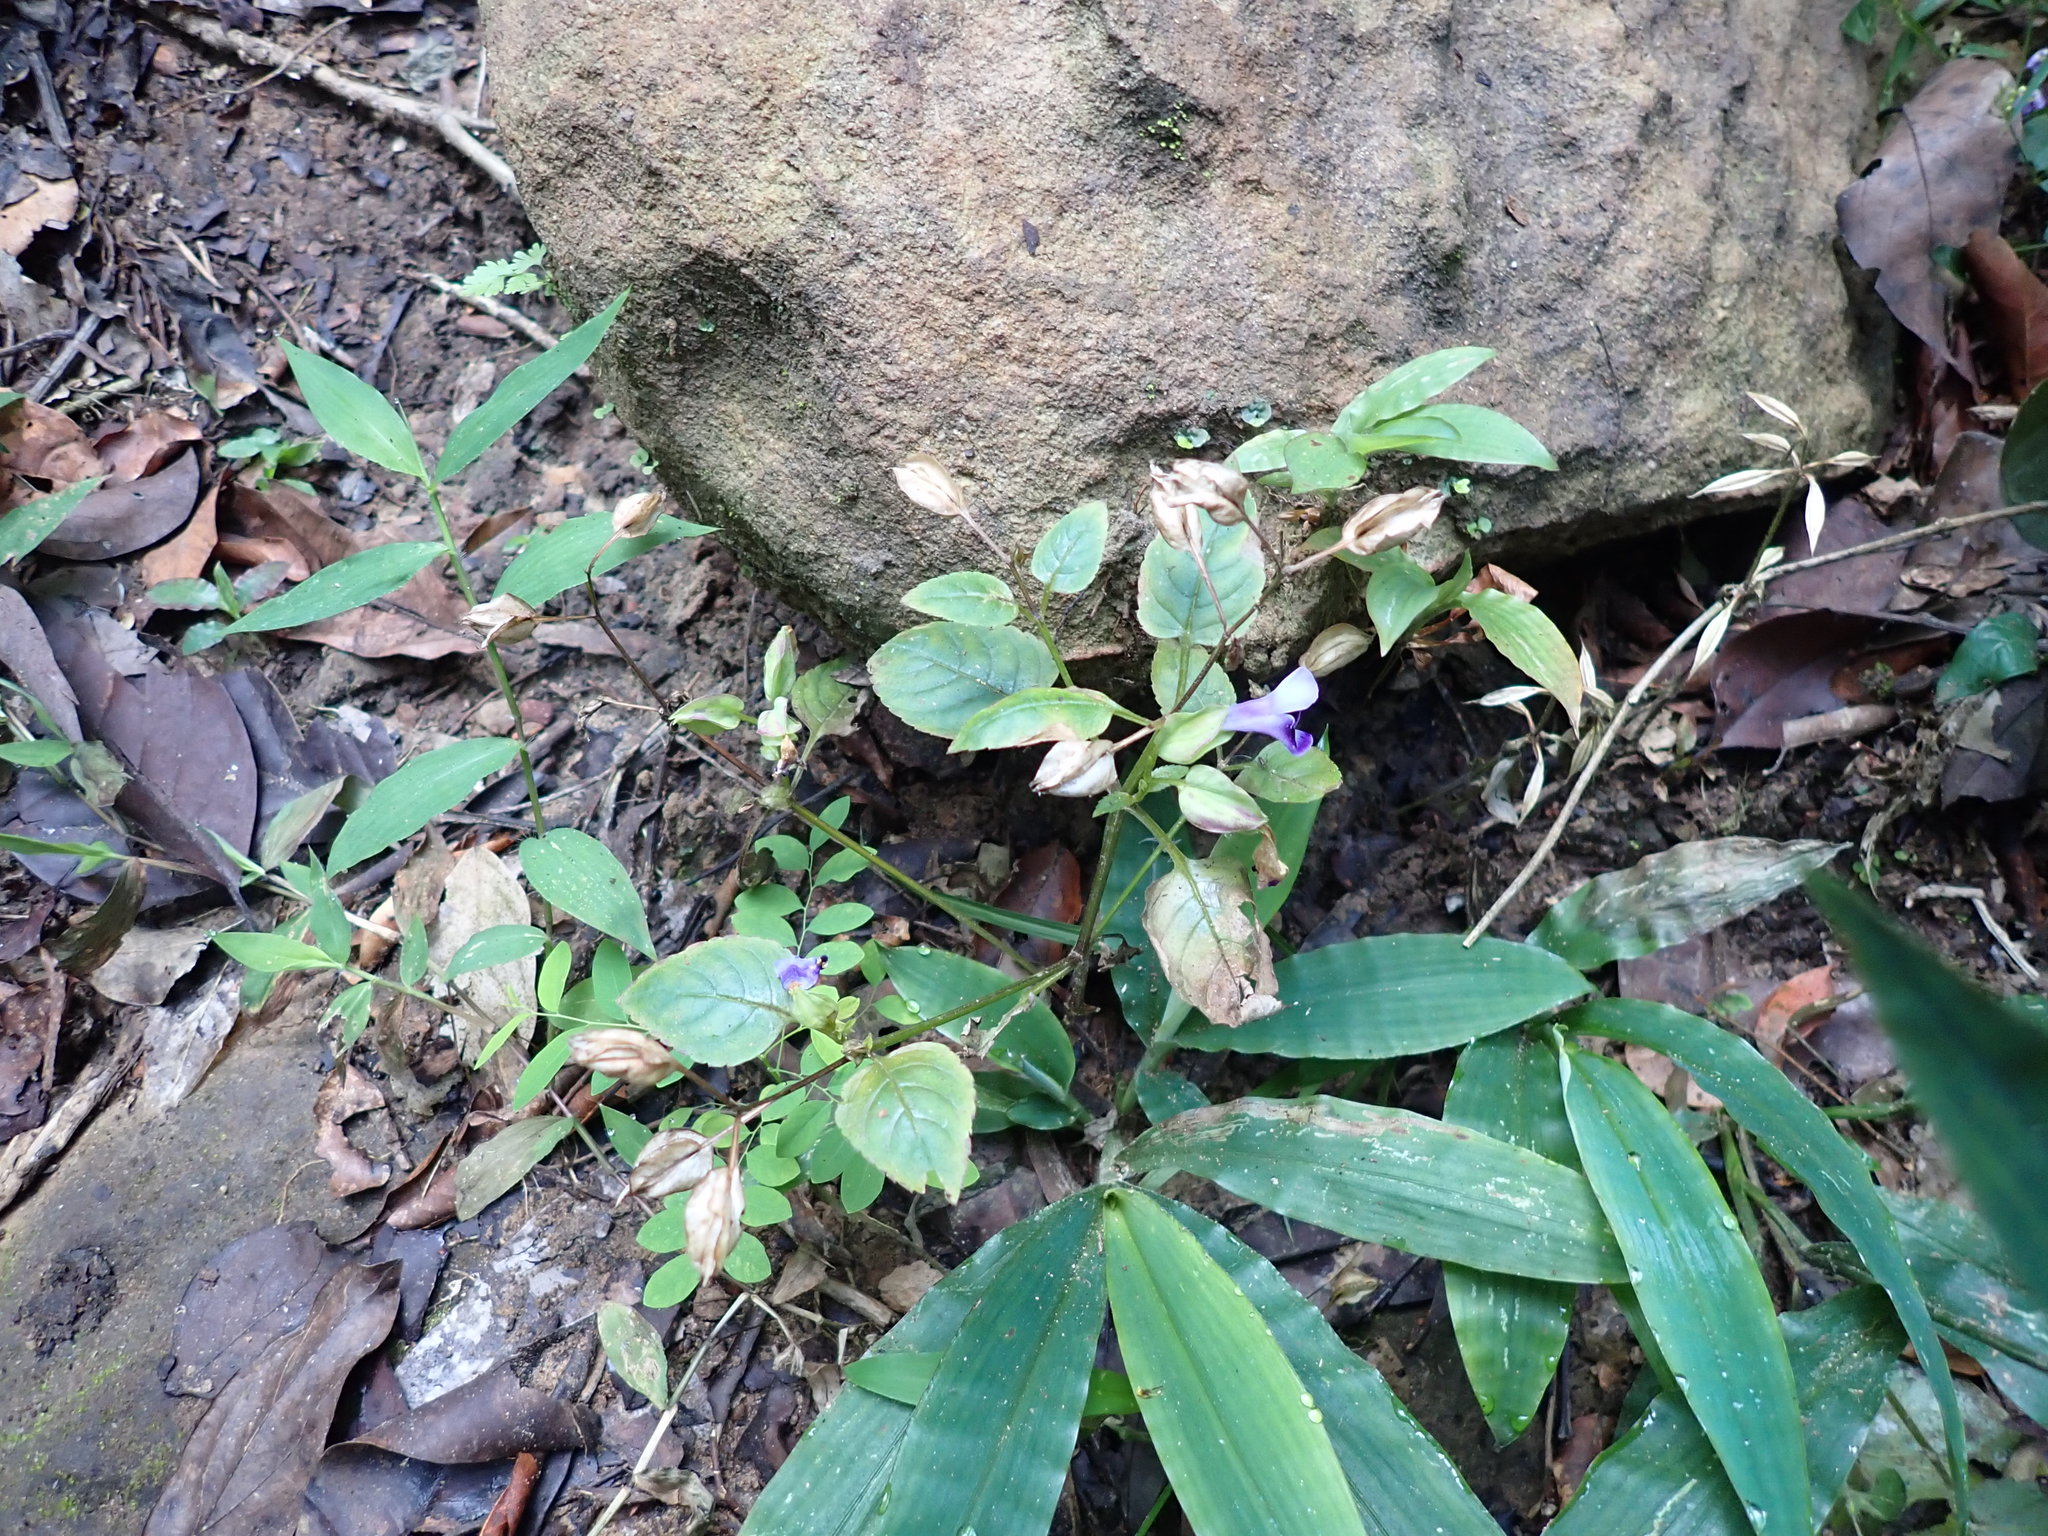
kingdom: Plantae
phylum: Tracheophyta
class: Magnoliopsida
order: Lamiales
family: Linderniaceae
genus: Torenia
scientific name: Torenia fournieri
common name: Bluewings
